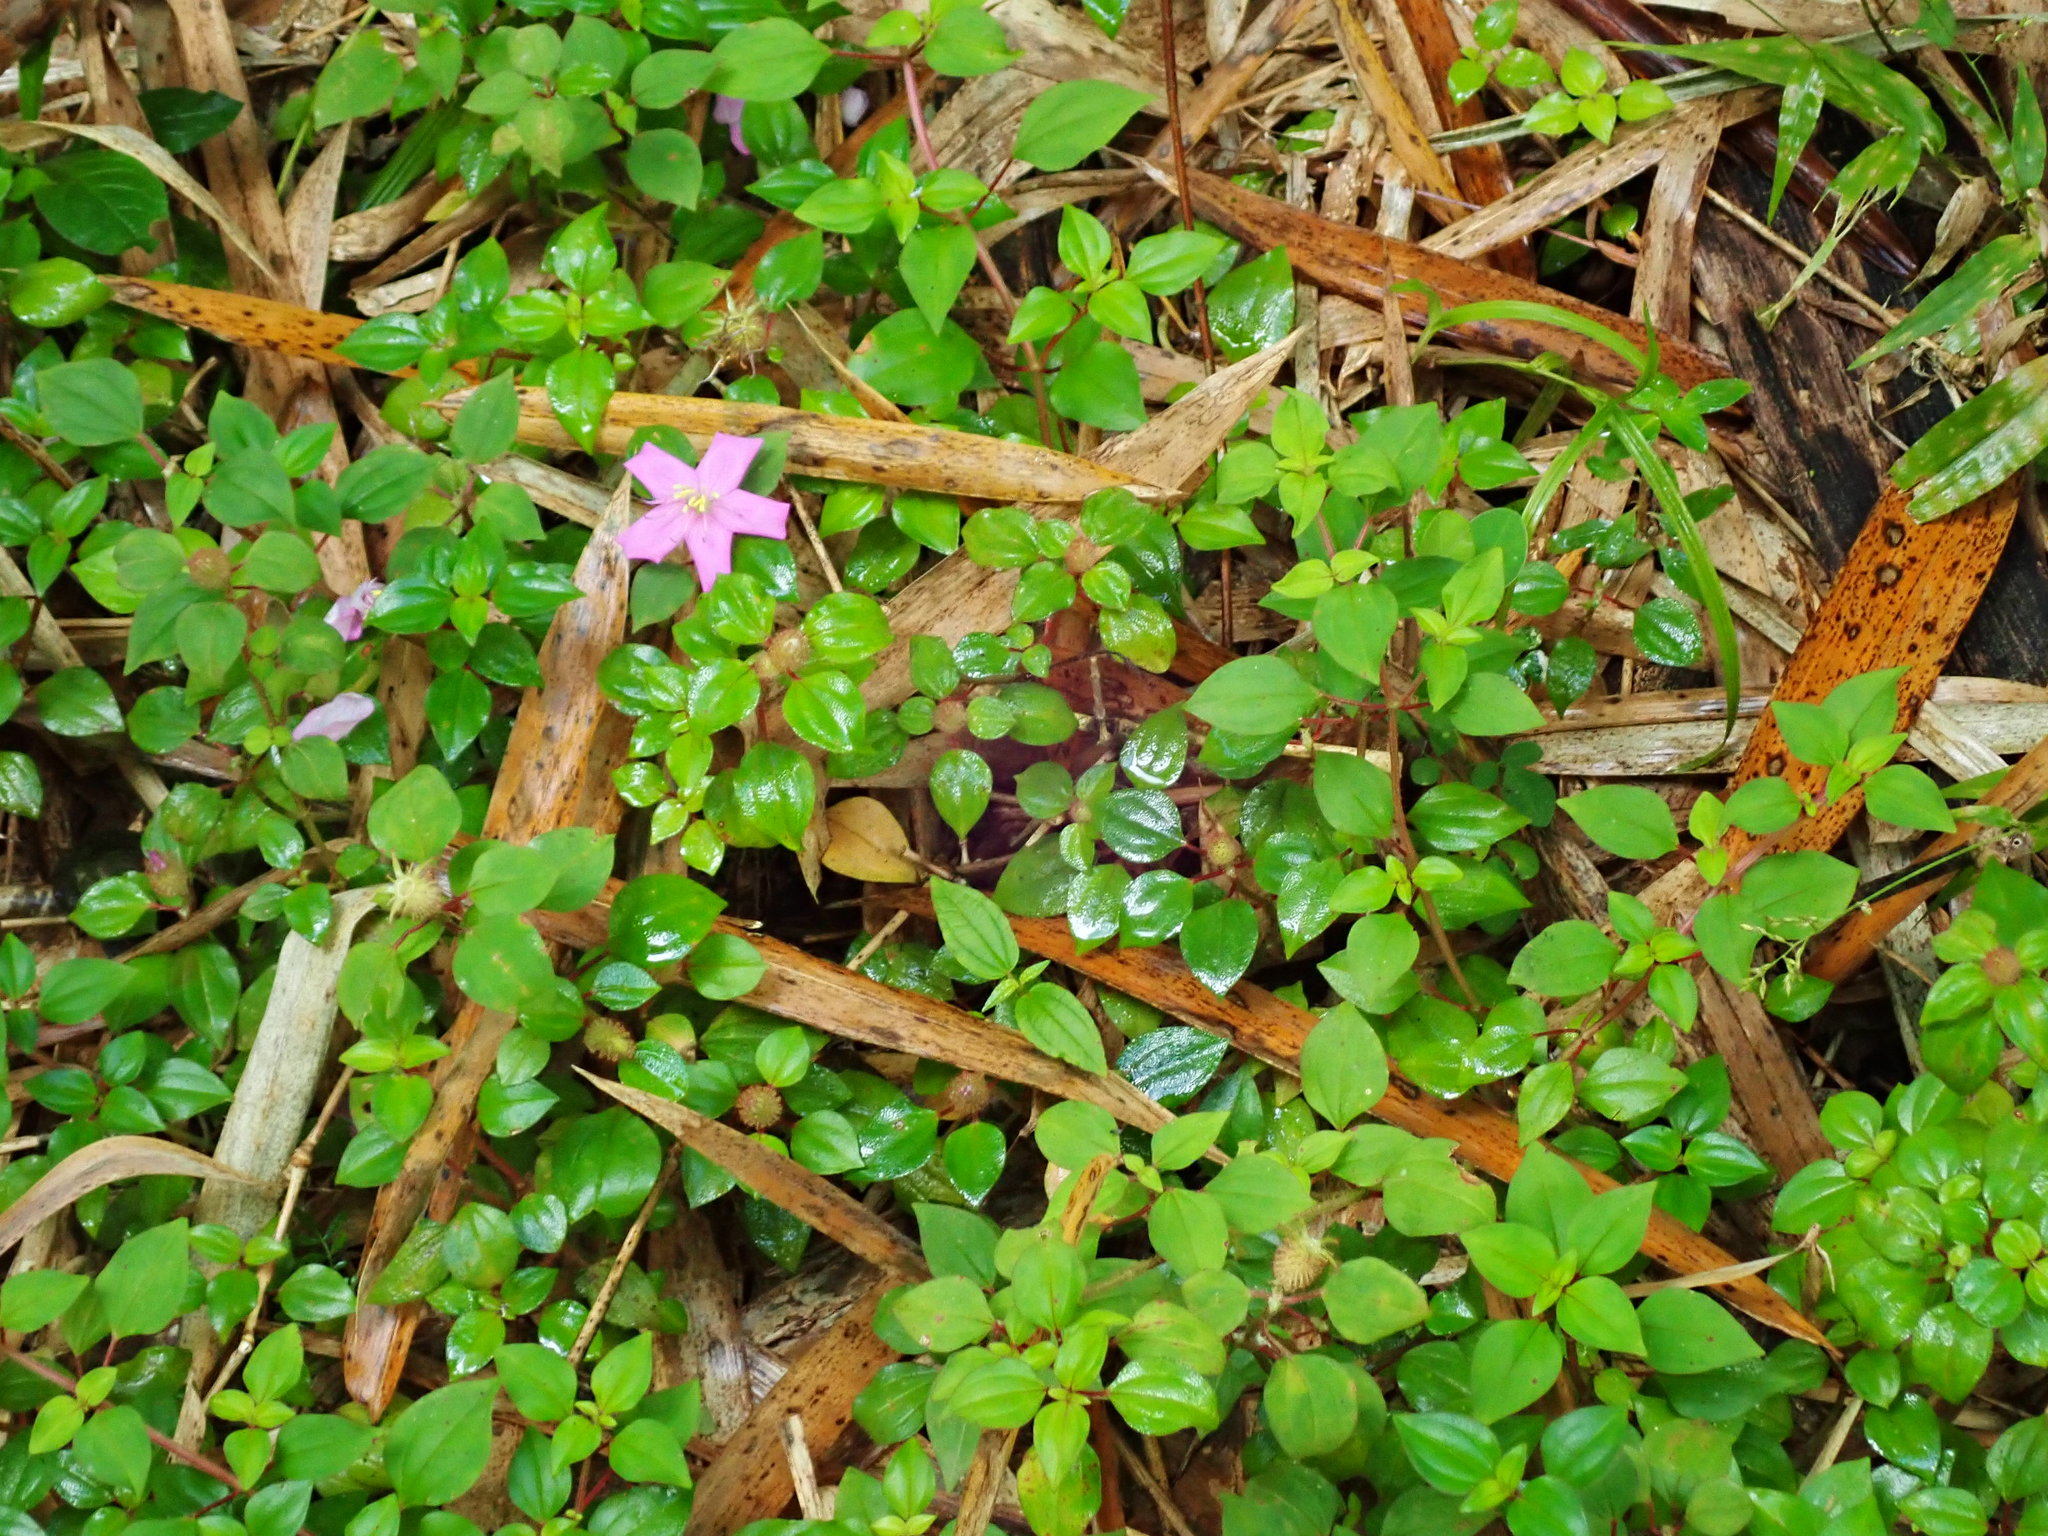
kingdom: Plantae
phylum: Tracheophyta
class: Magnoliopsida
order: Myrtales
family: Melastomataceae
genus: Heterotis
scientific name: Heterotis rotundifolia
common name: Pinklady
